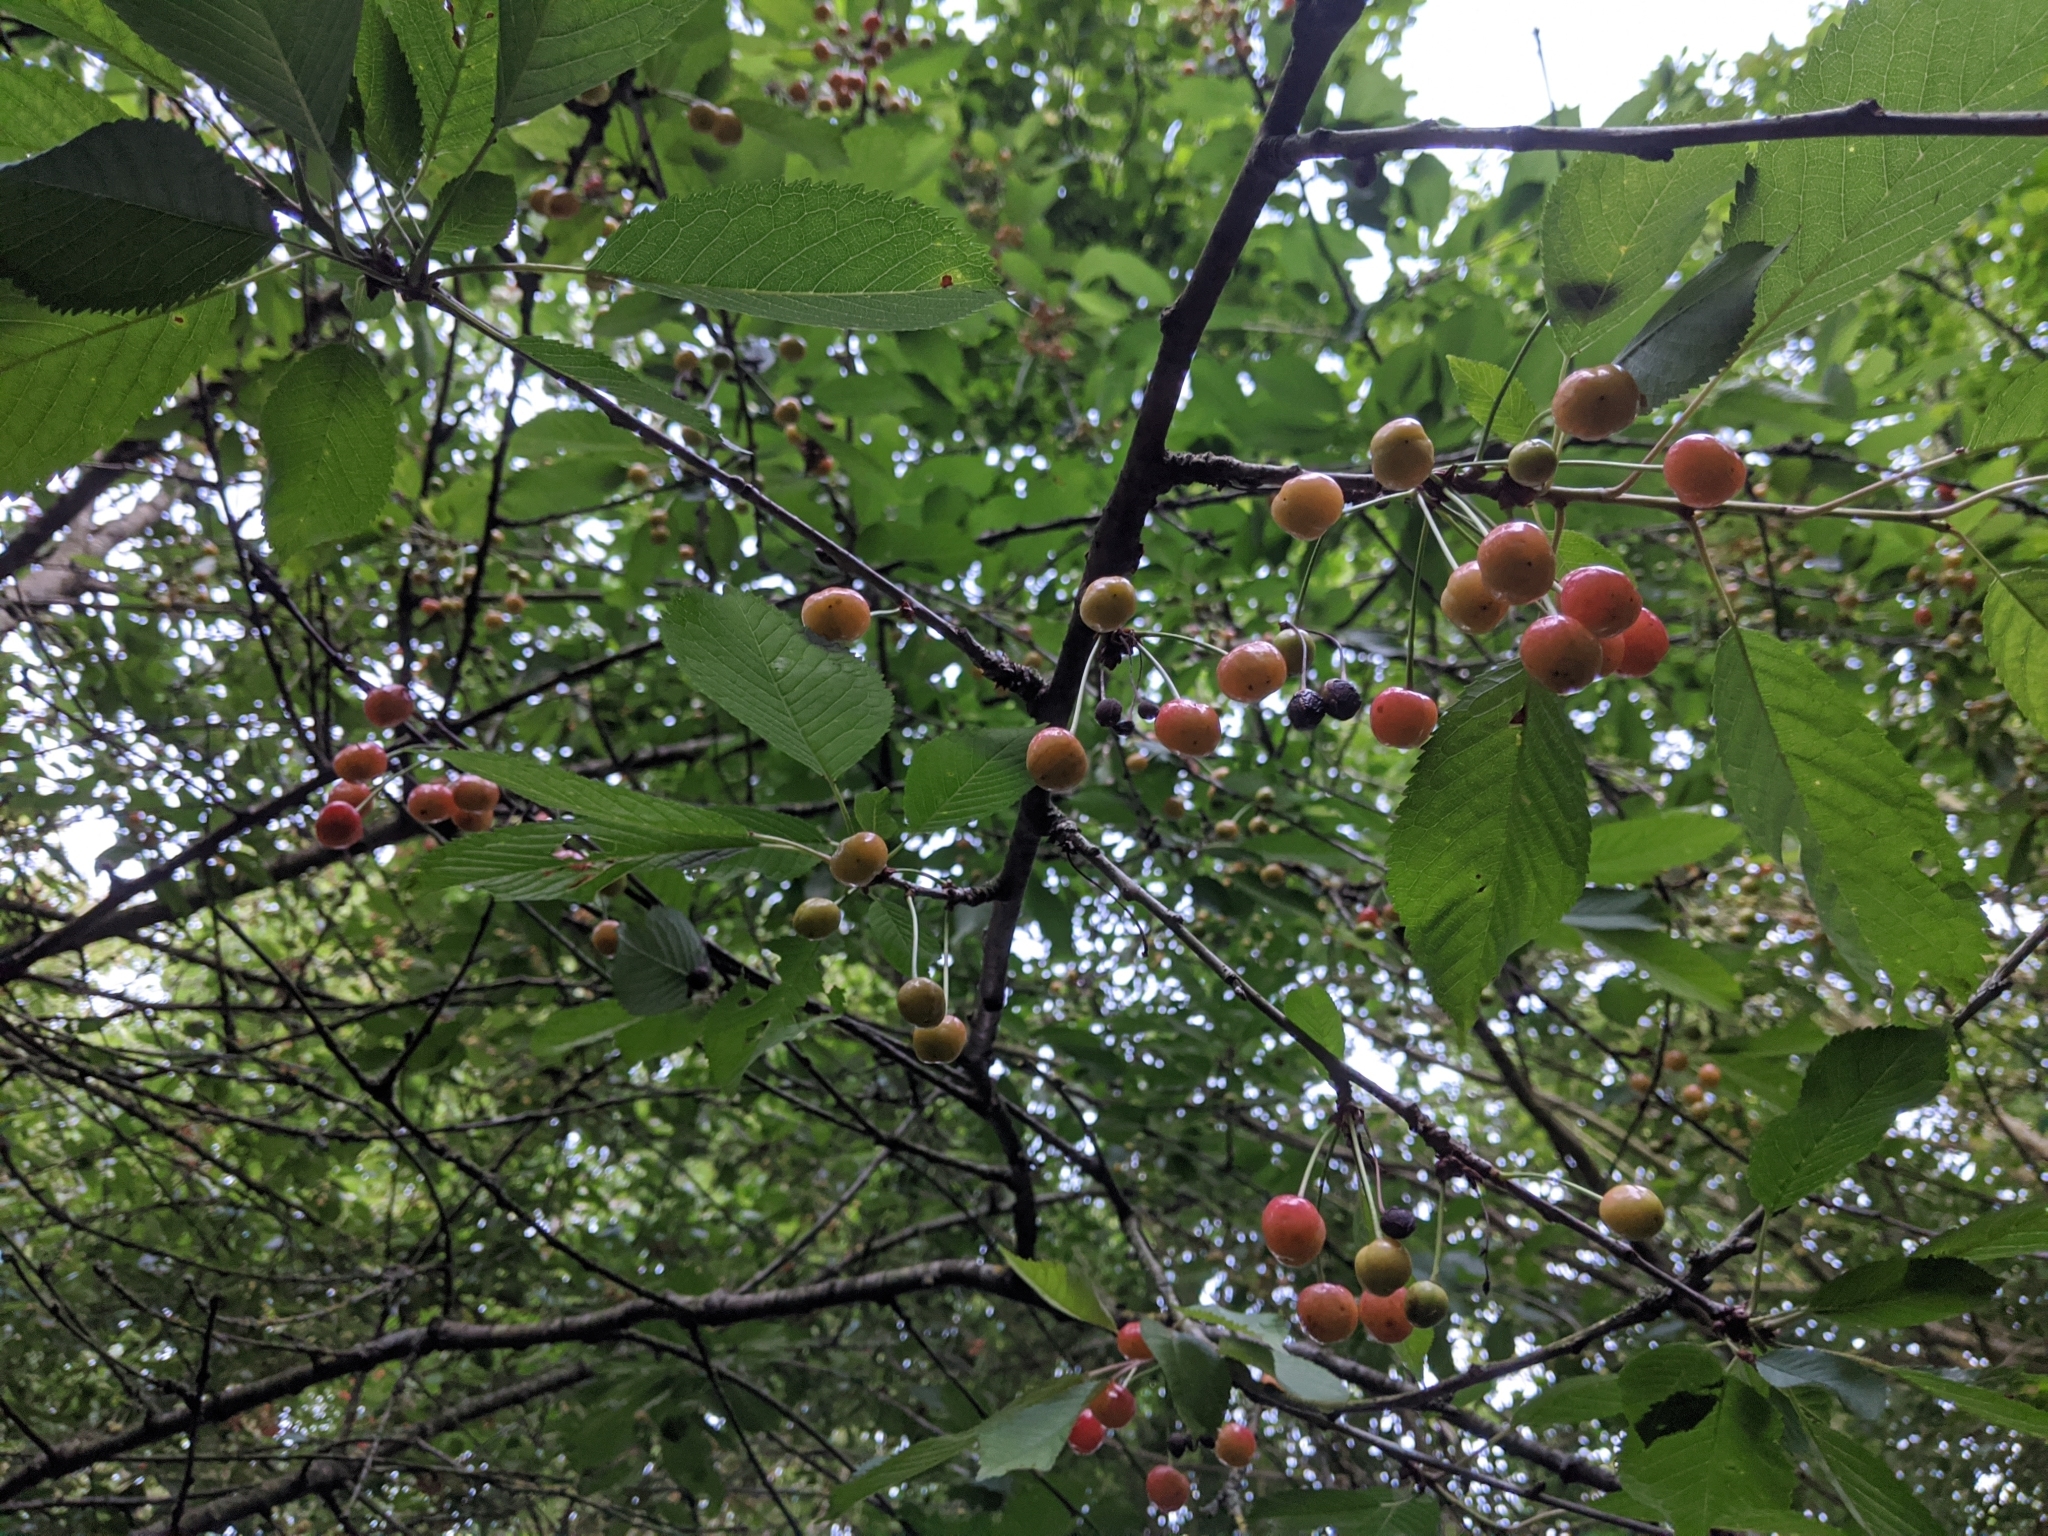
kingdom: Plantae
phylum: Tracheophyta
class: Magnoliopsida
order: Rosales
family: Rosaceae
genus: Prunus
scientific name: Prunus avium
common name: Sweet cherry
